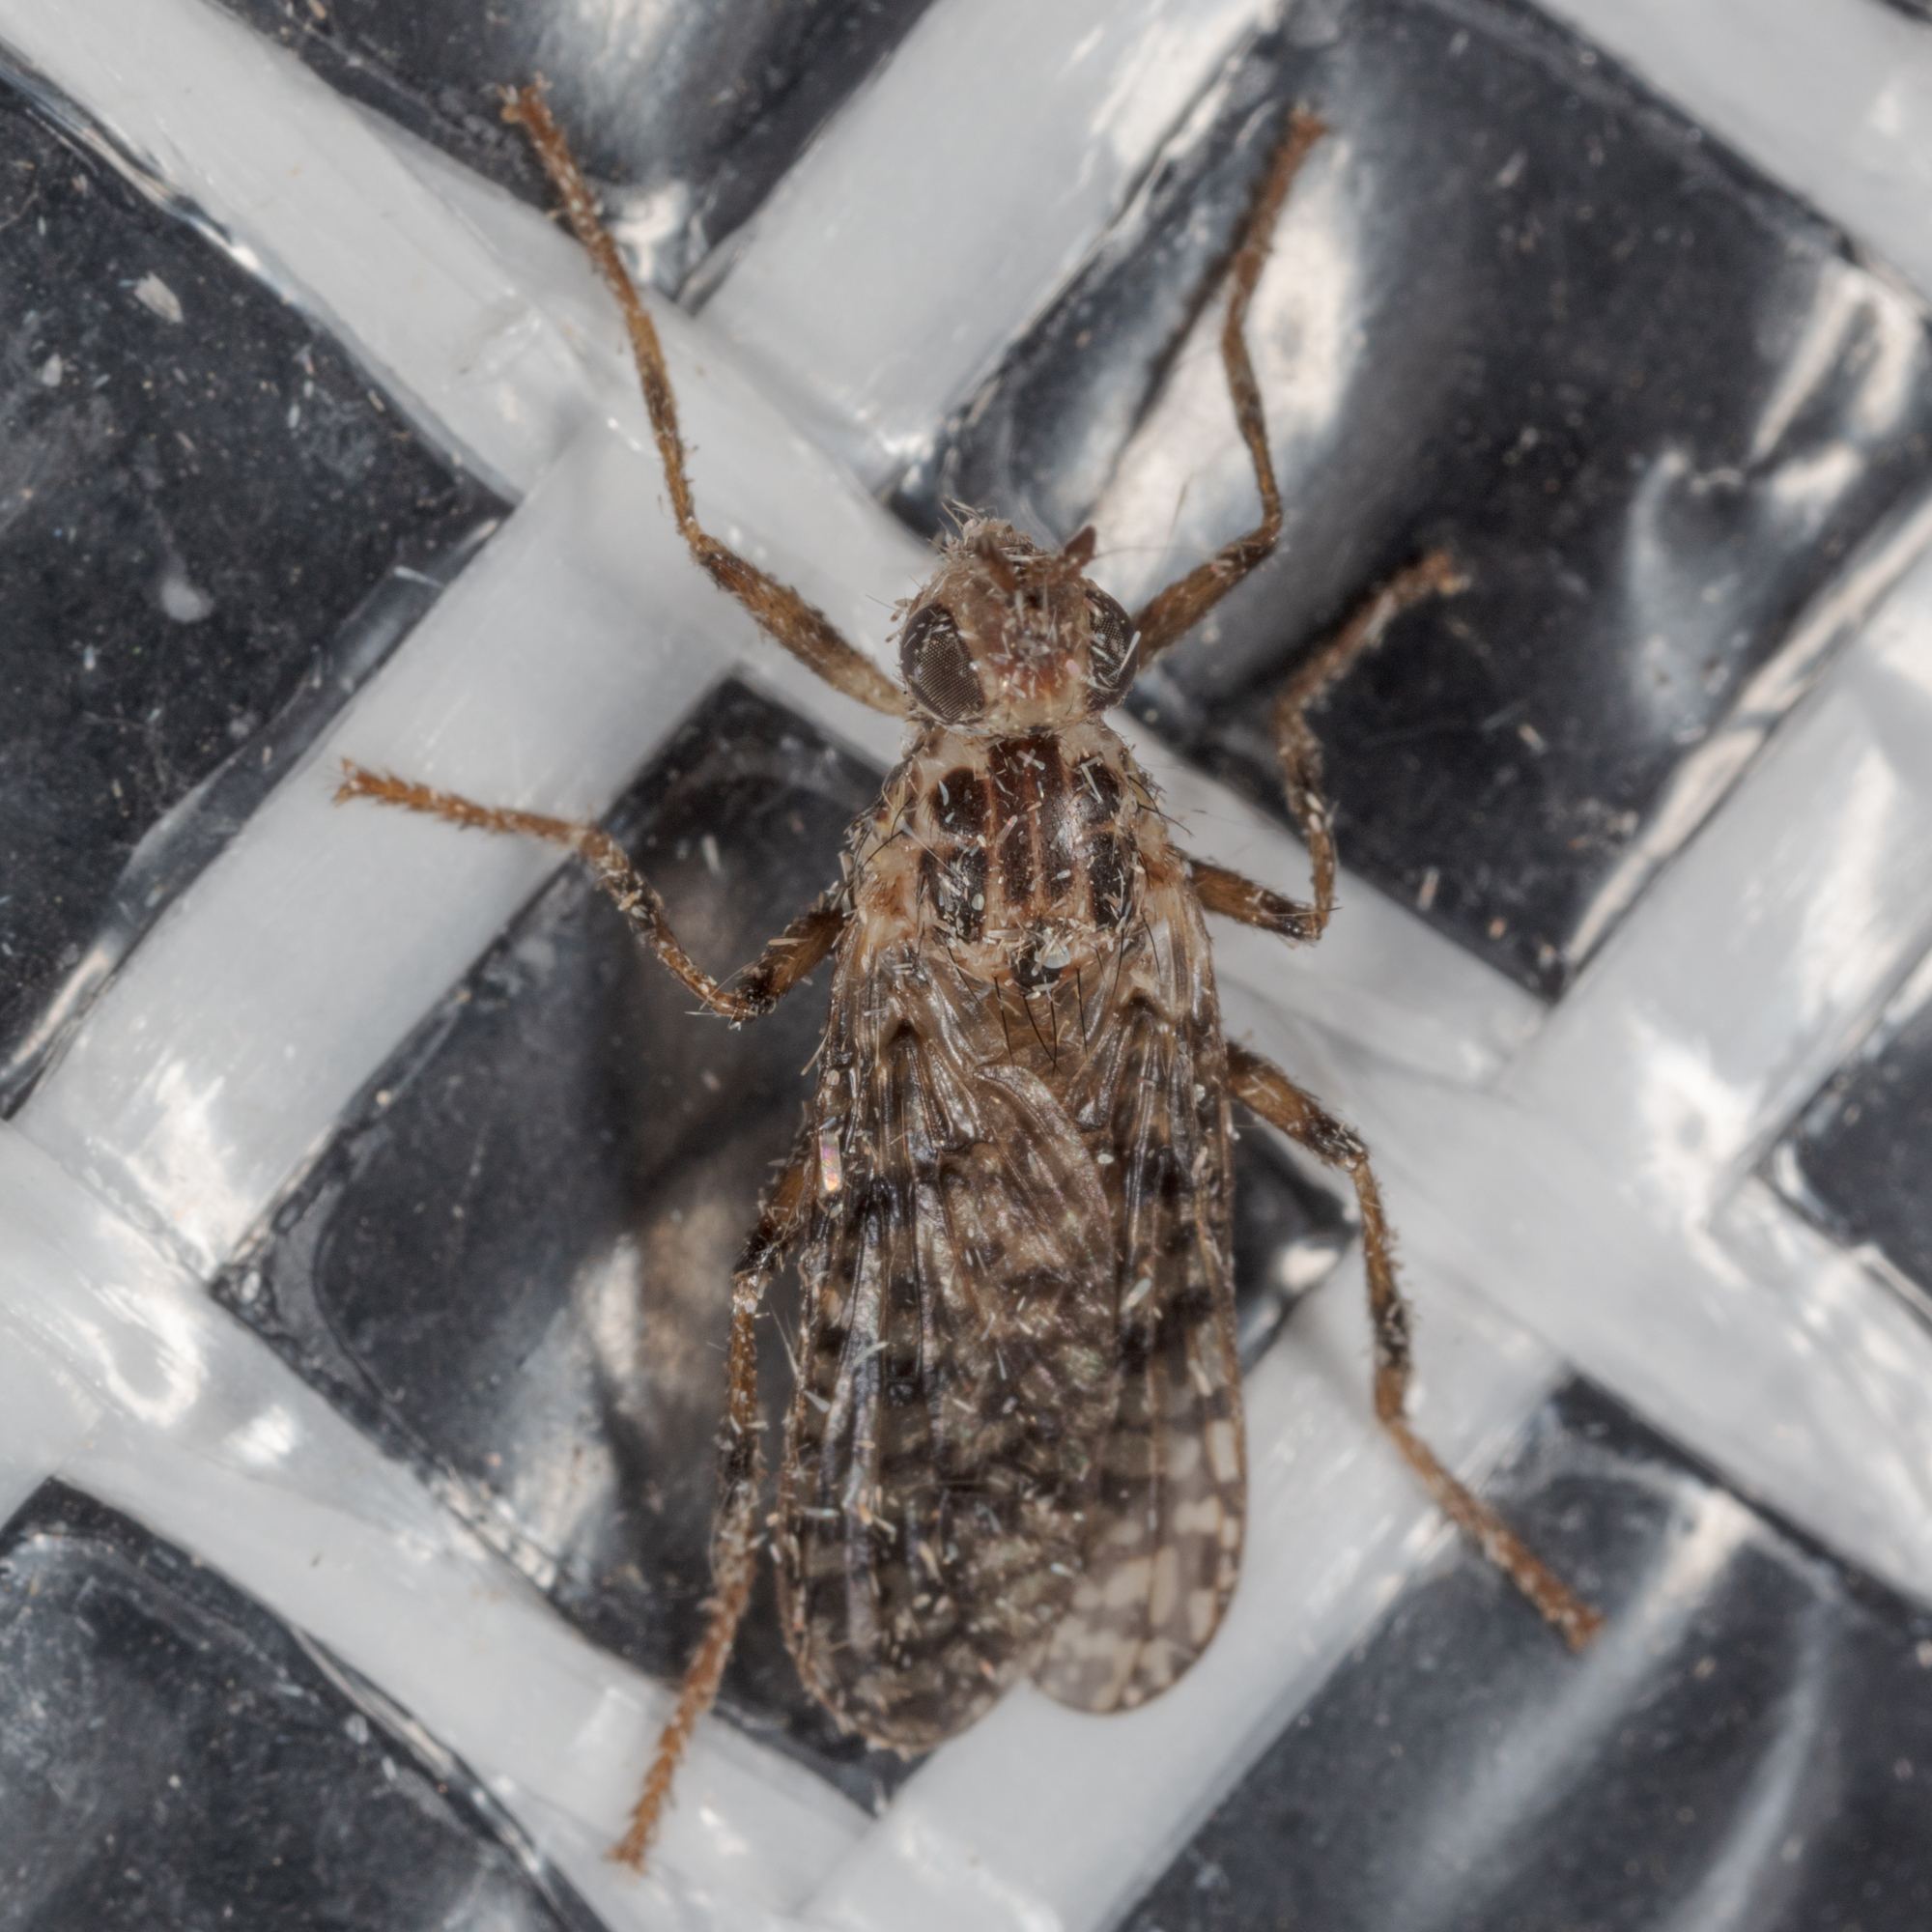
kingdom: Animalia
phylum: Arthropoda
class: Insecta
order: Diptera
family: Pyrgotidae
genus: Boreothrinax
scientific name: Boreothrinax
